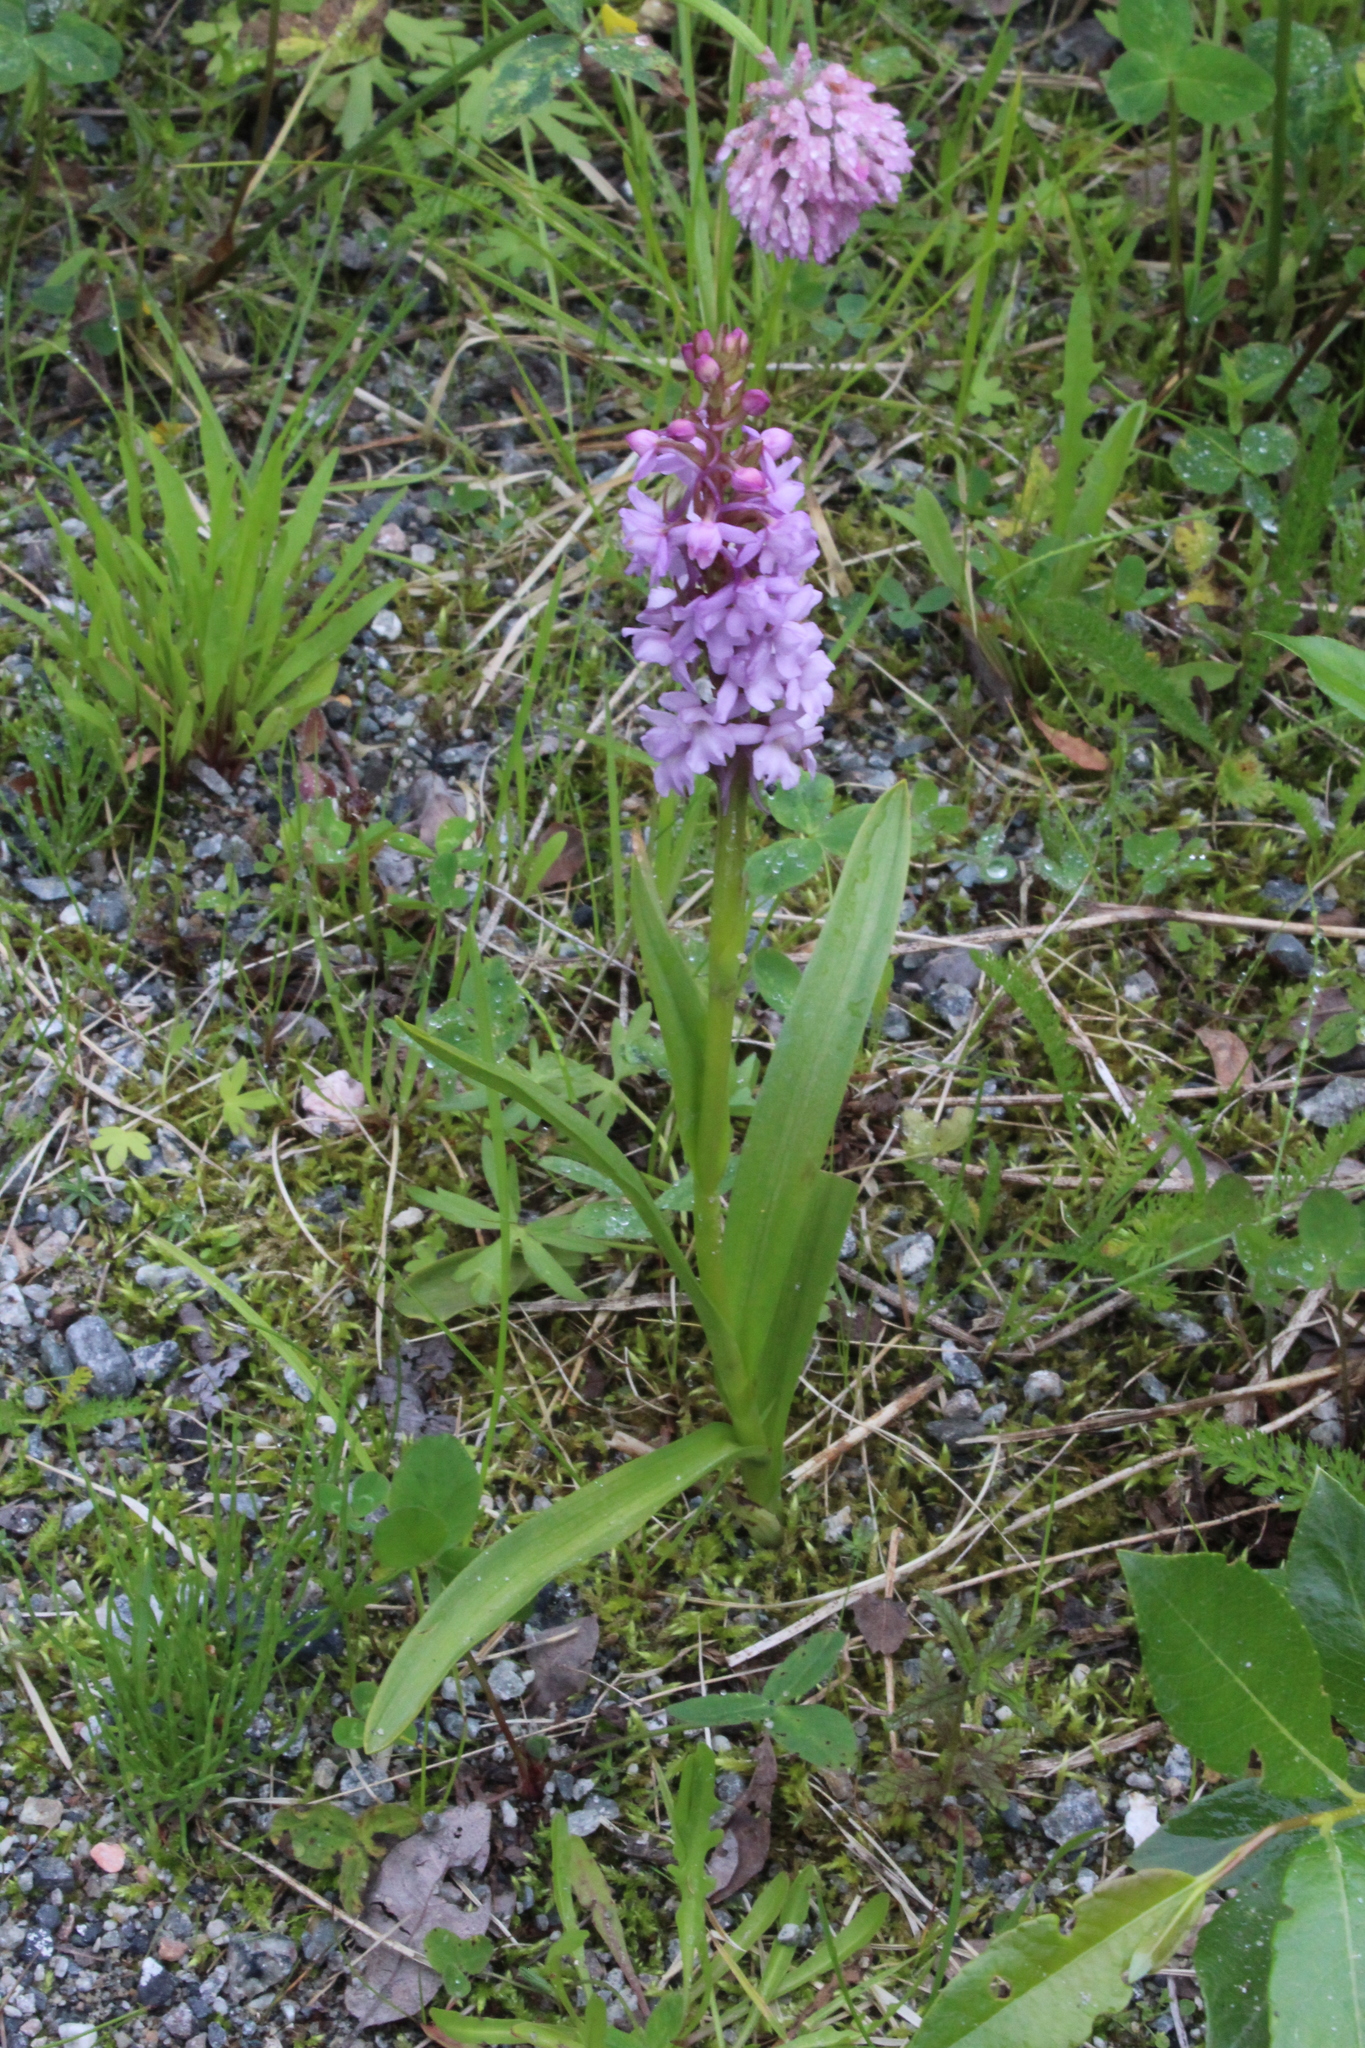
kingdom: Plantae
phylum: Tracheophyta
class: Liliopsida
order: Asparagales
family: Orchidaceae
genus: Gymnadenia
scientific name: Gymnadenia conopsea
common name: Fragrant orchid
